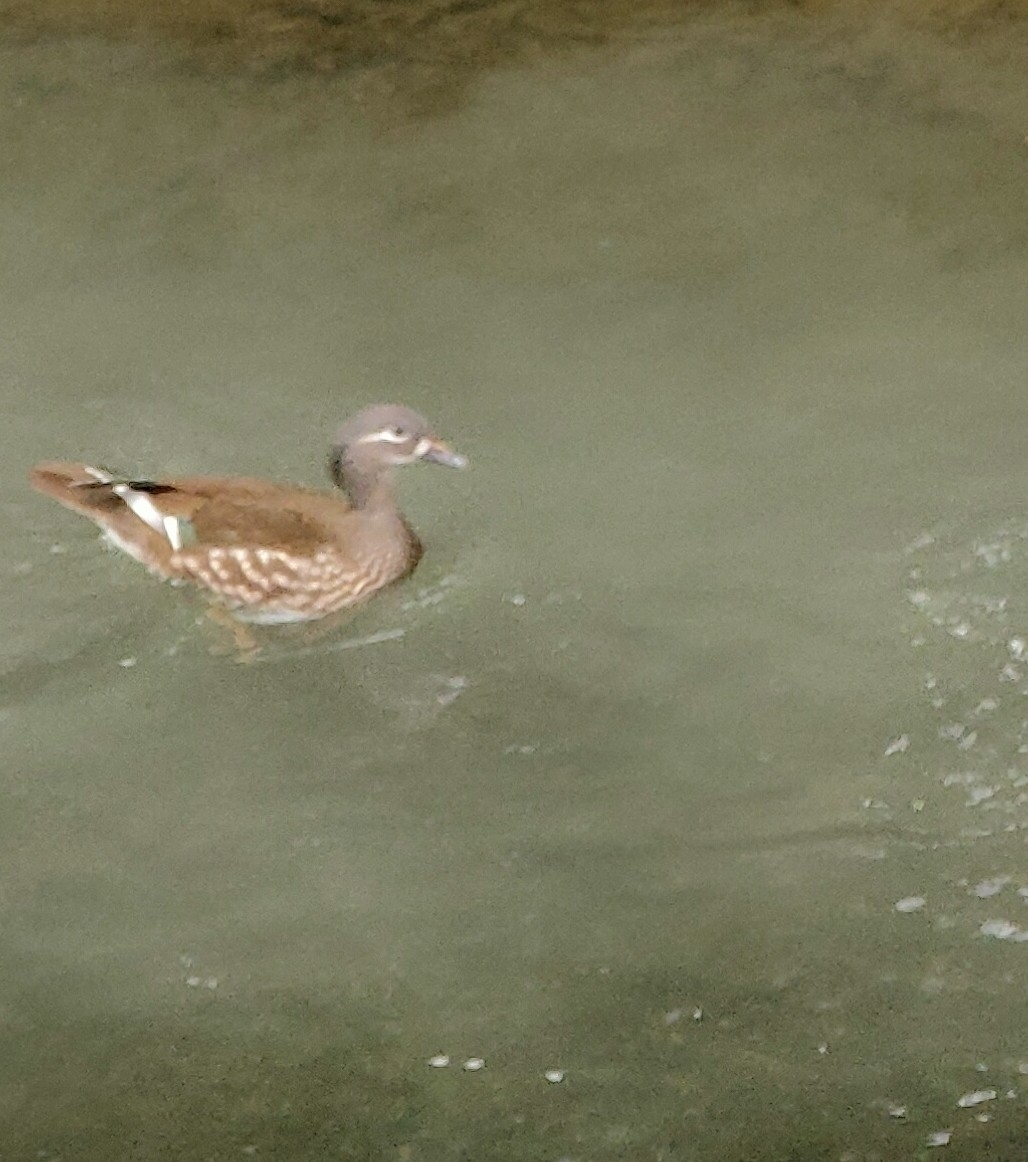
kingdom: Animalia
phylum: Chordata
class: Aves
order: Anseriformes
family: Anatidae
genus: Aix
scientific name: Aix galericulata
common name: Mandarin duck
